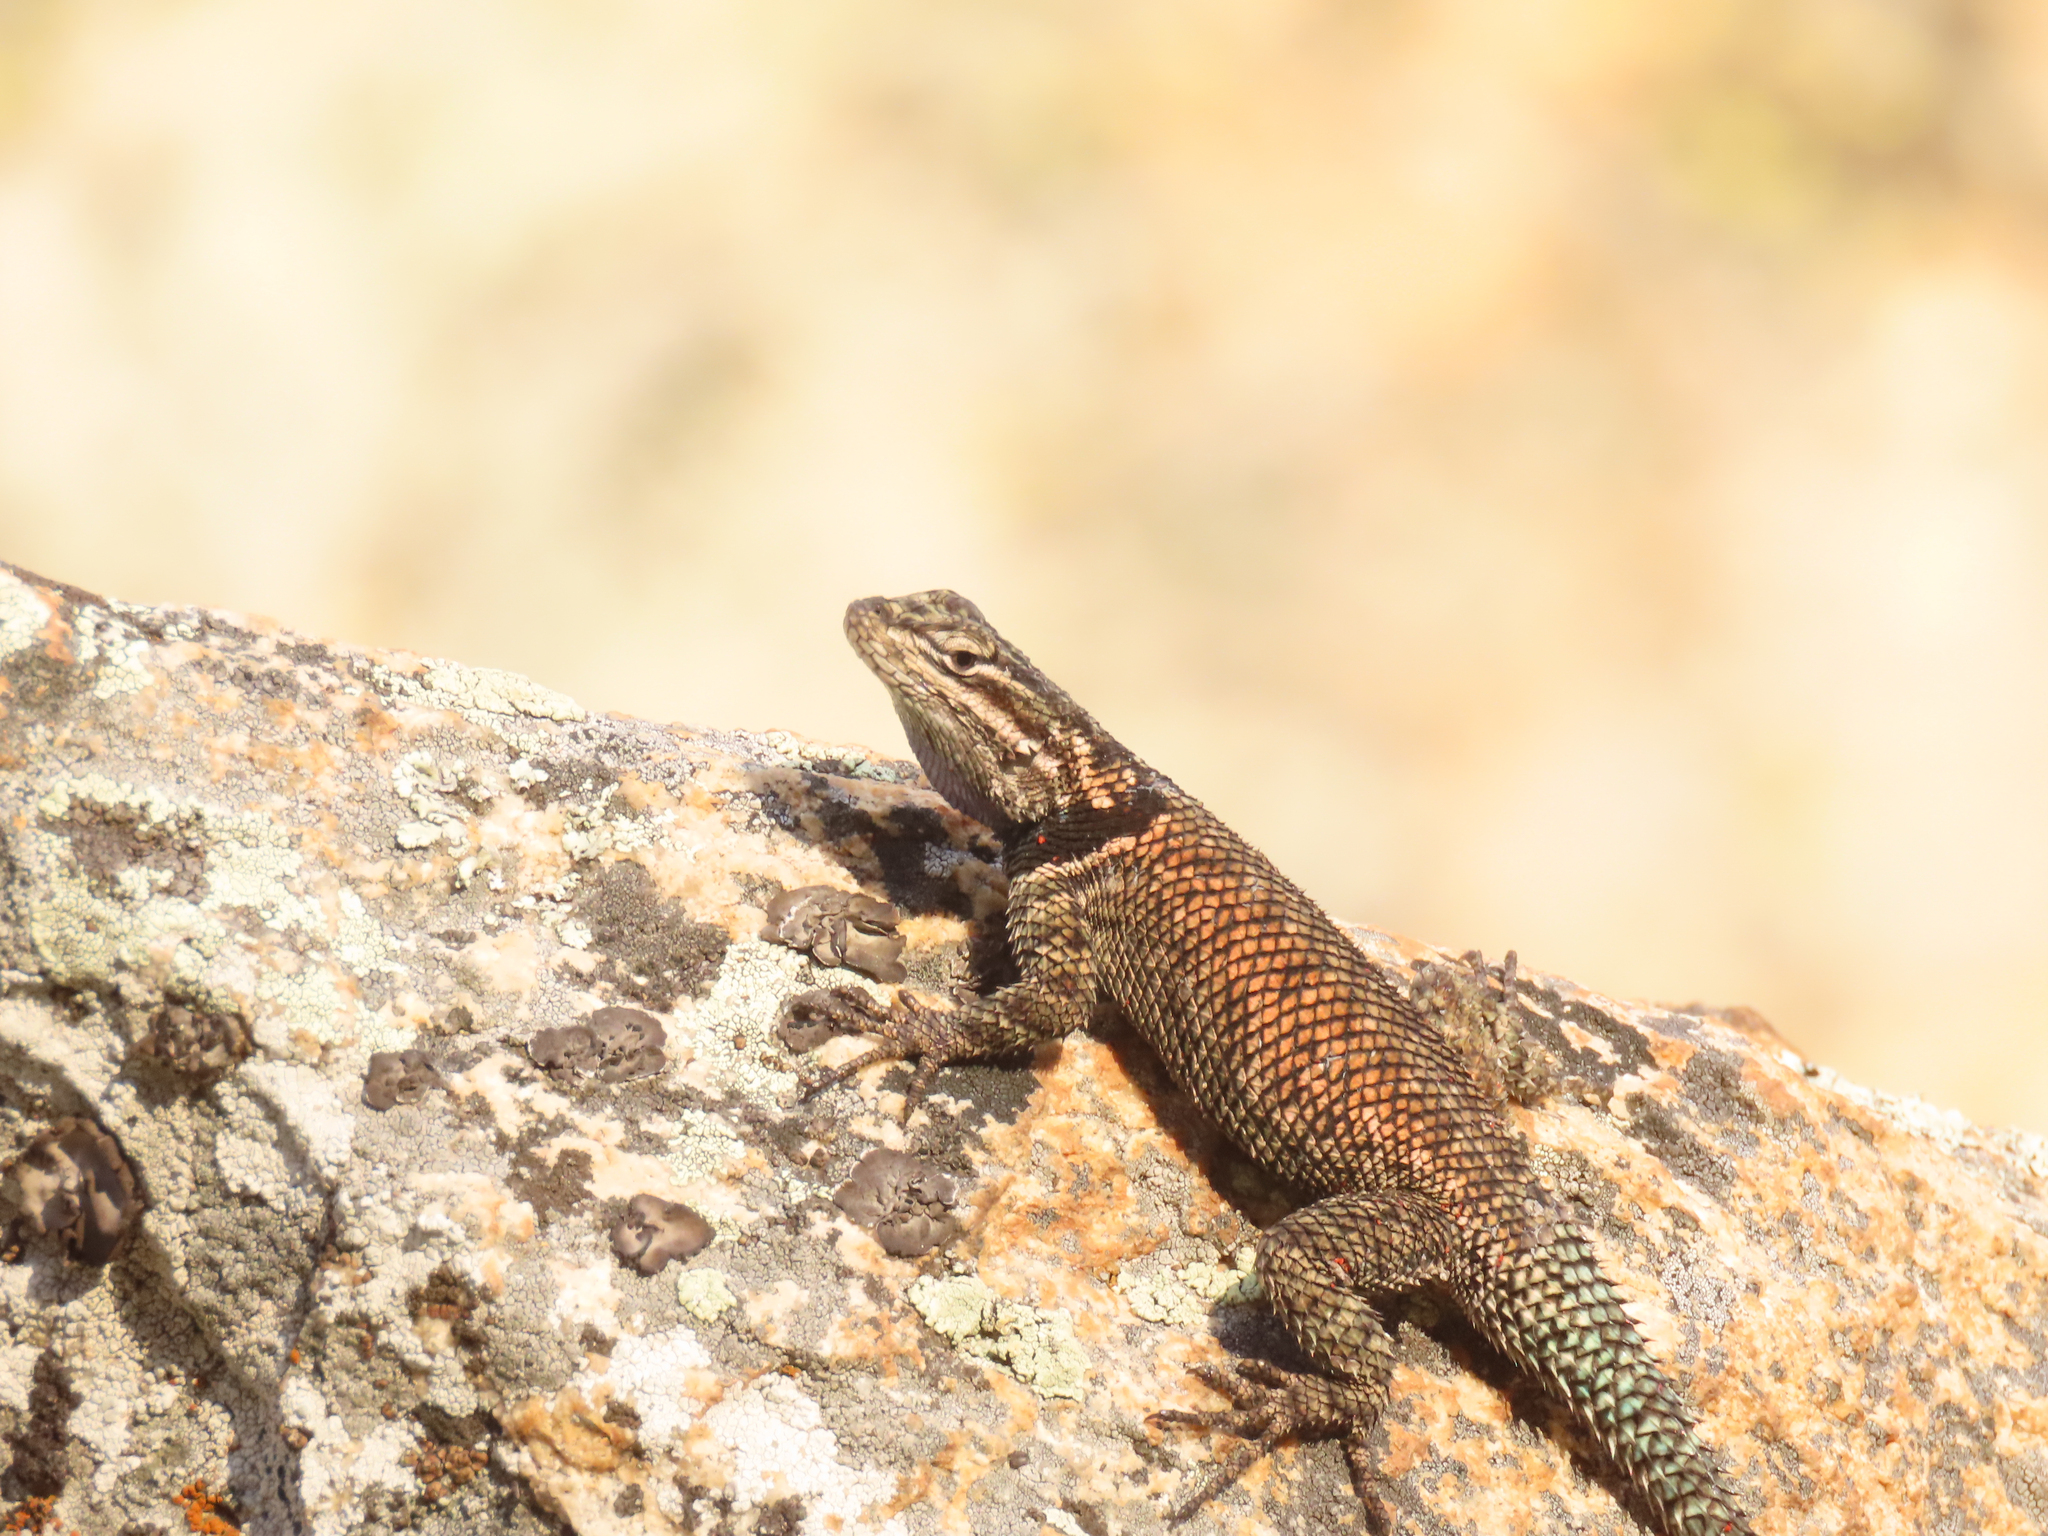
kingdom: Animalia
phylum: Chordata
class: Squamata
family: Phrynosomatidae
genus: Sceloporus
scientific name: Sceloporus jarrovii
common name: Yarrow's spiny lizard
